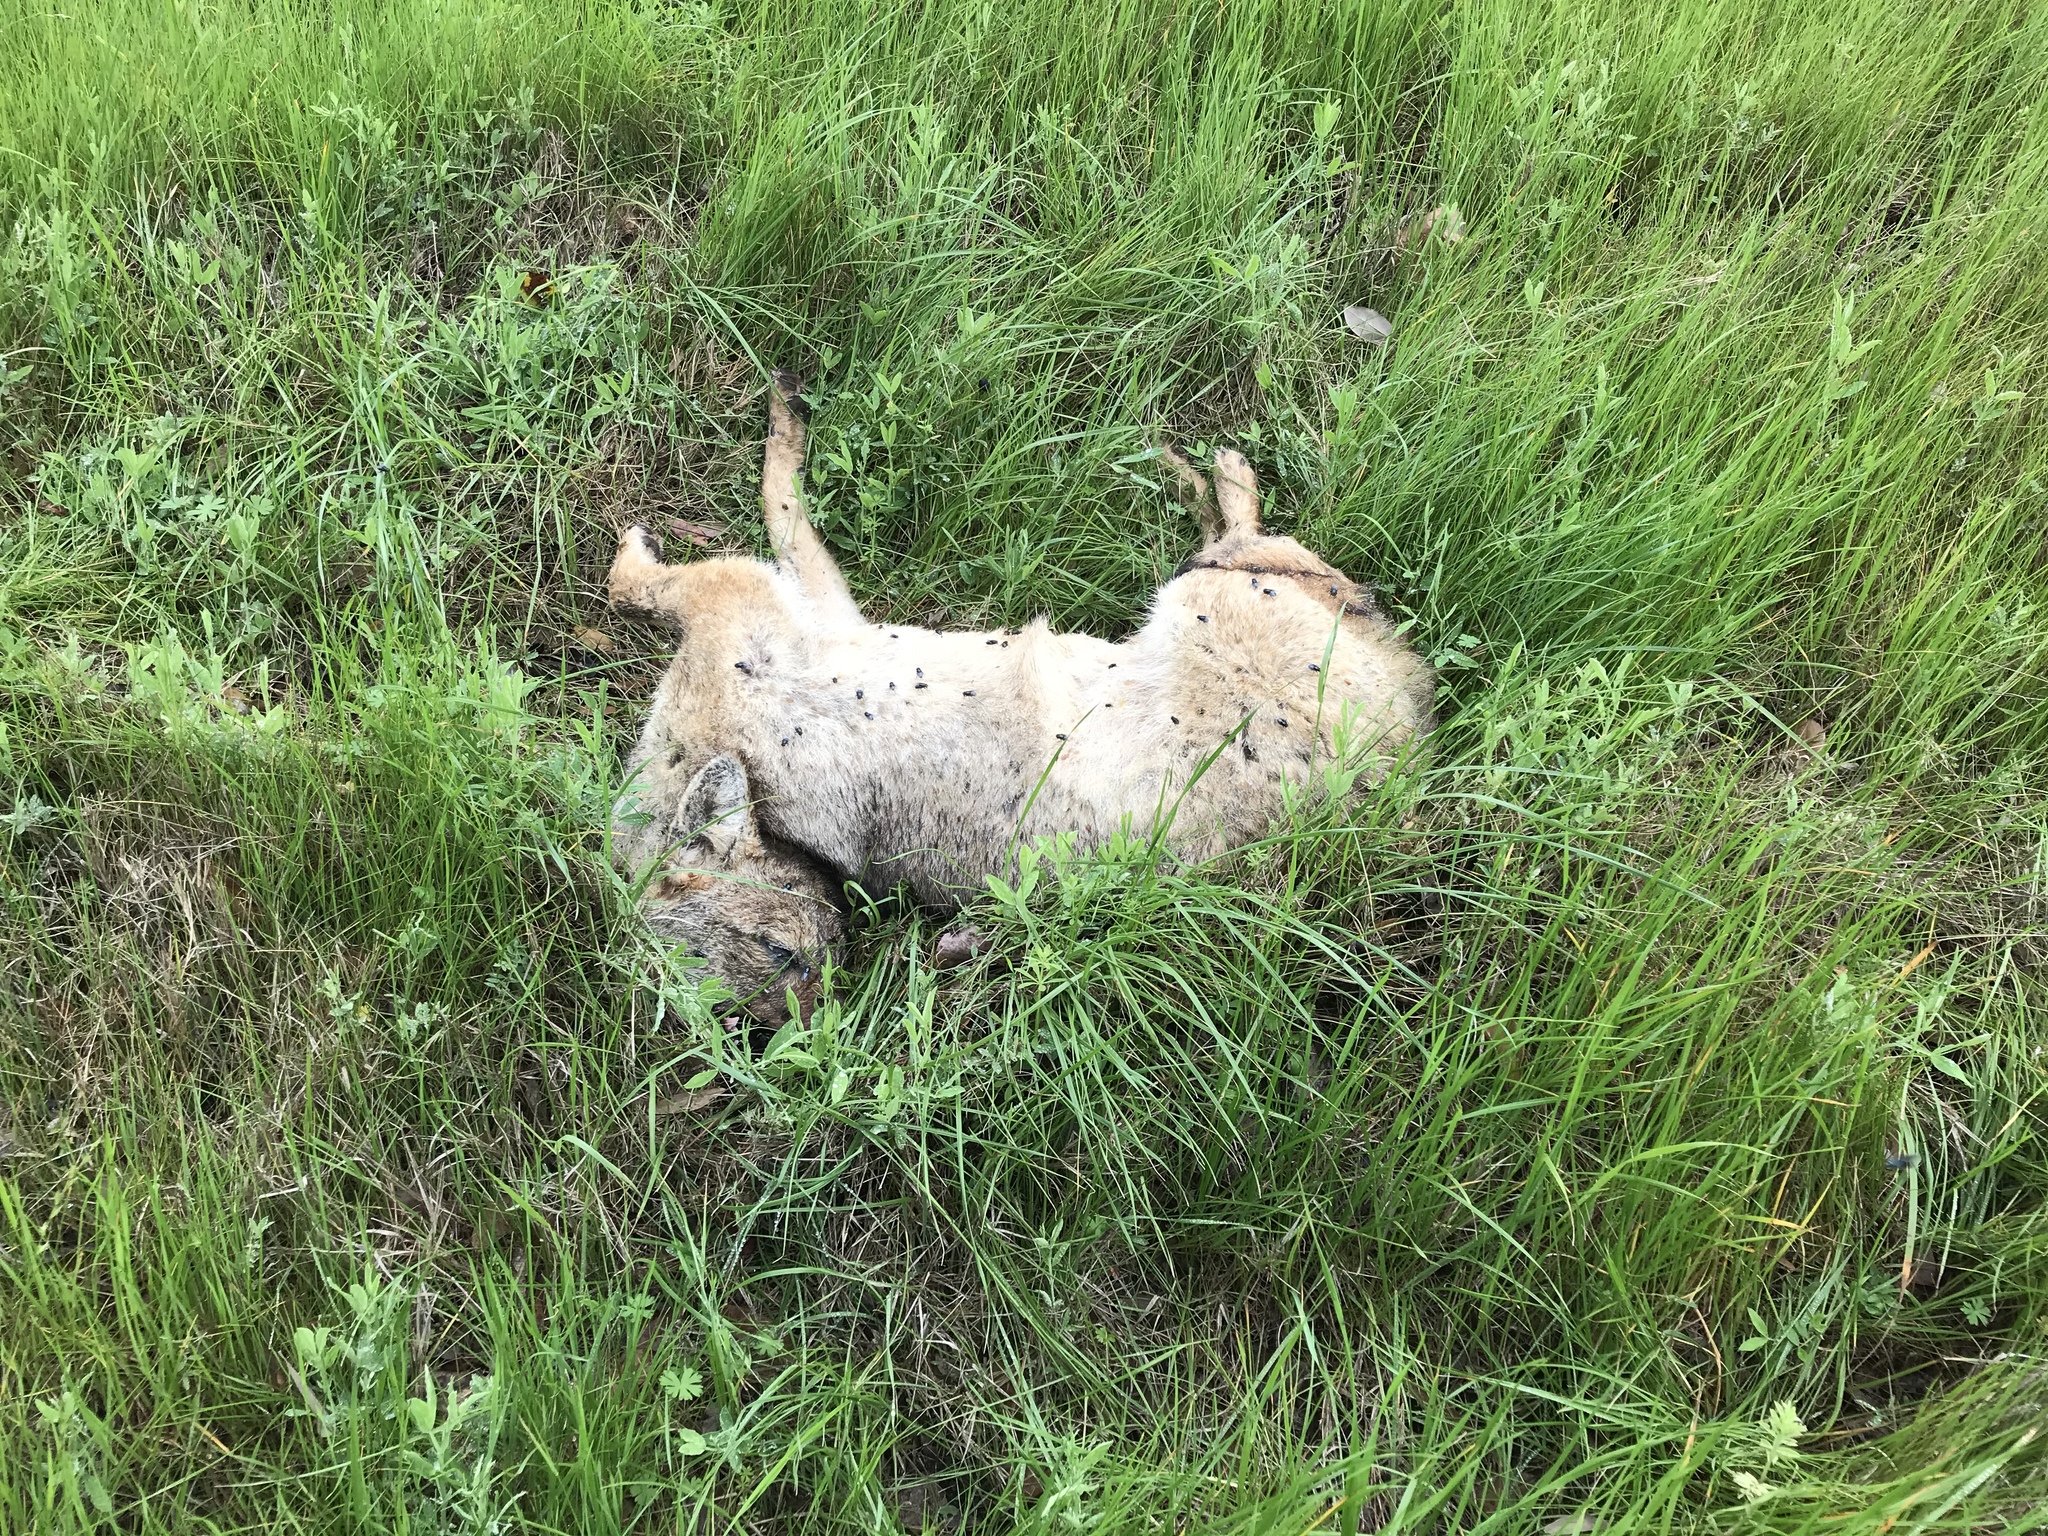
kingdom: Animalia
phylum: Chordata
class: Mammalia
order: Carnivora
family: Canidae
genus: Canis
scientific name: Canis latrans
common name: Coyote
